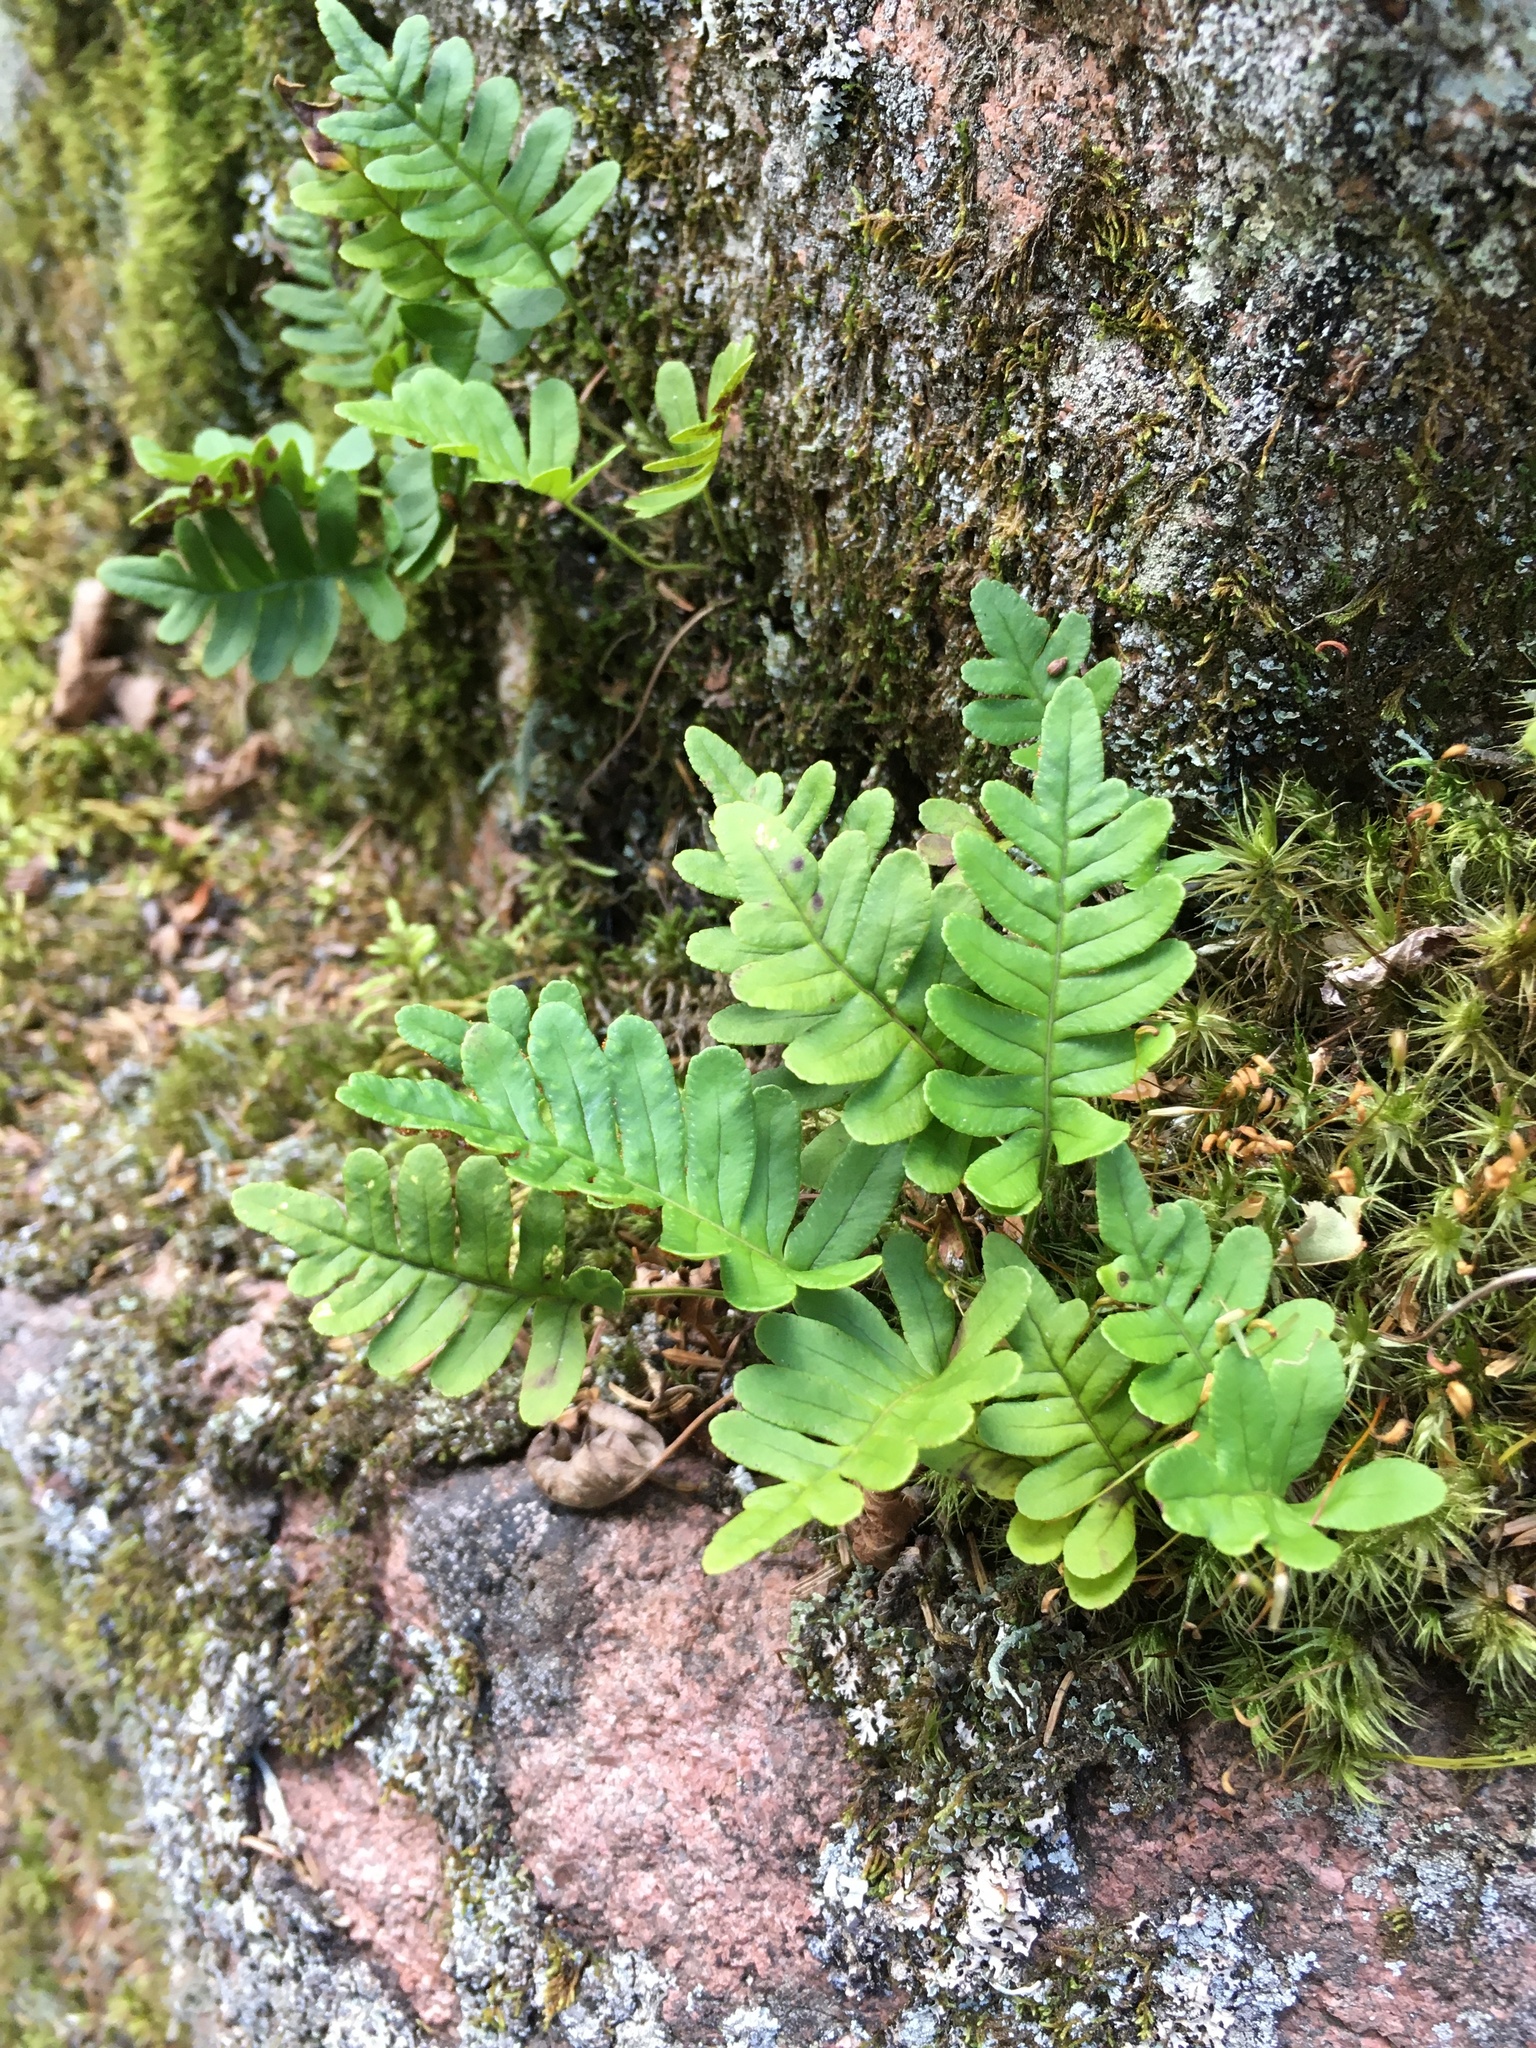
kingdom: Plantae
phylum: Tracheophyta
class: Polypodiopsida
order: Polypodiales
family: Polypodiaceae
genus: Polypodium
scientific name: Polypodium virginianum
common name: American wall fern
